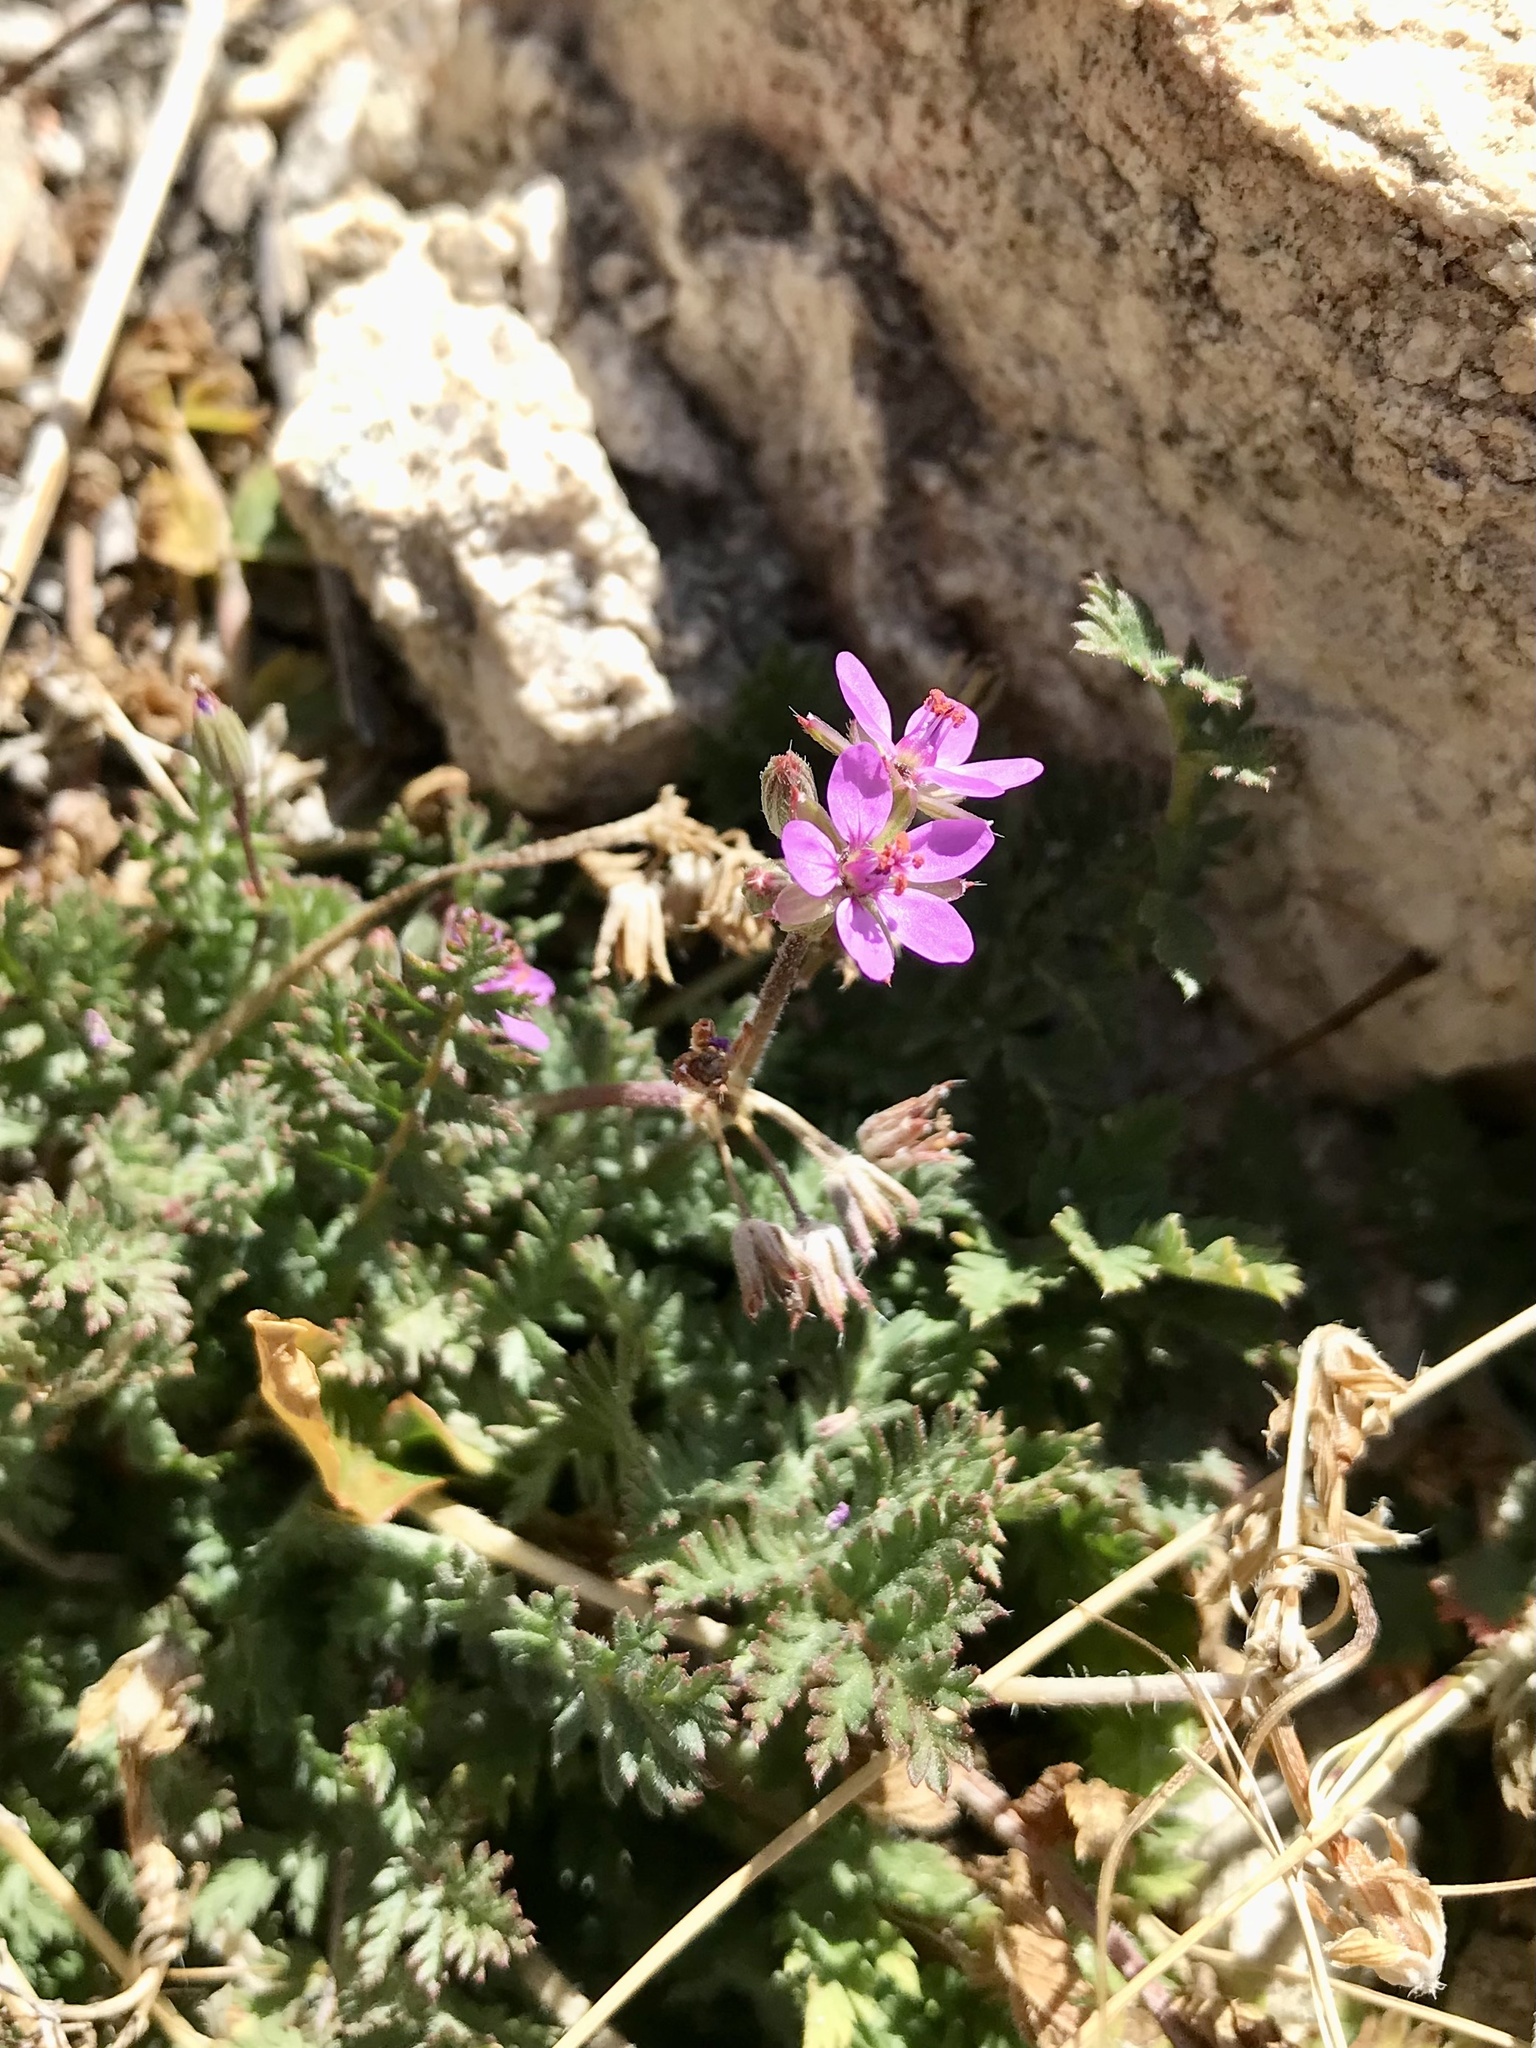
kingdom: Plantae
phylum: Tracheophyta
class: Magnoliopsida
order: Geraniales
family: Geraniaceae
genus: Erodium
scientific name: Erodium cicutarium
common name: Common stork's-bill
